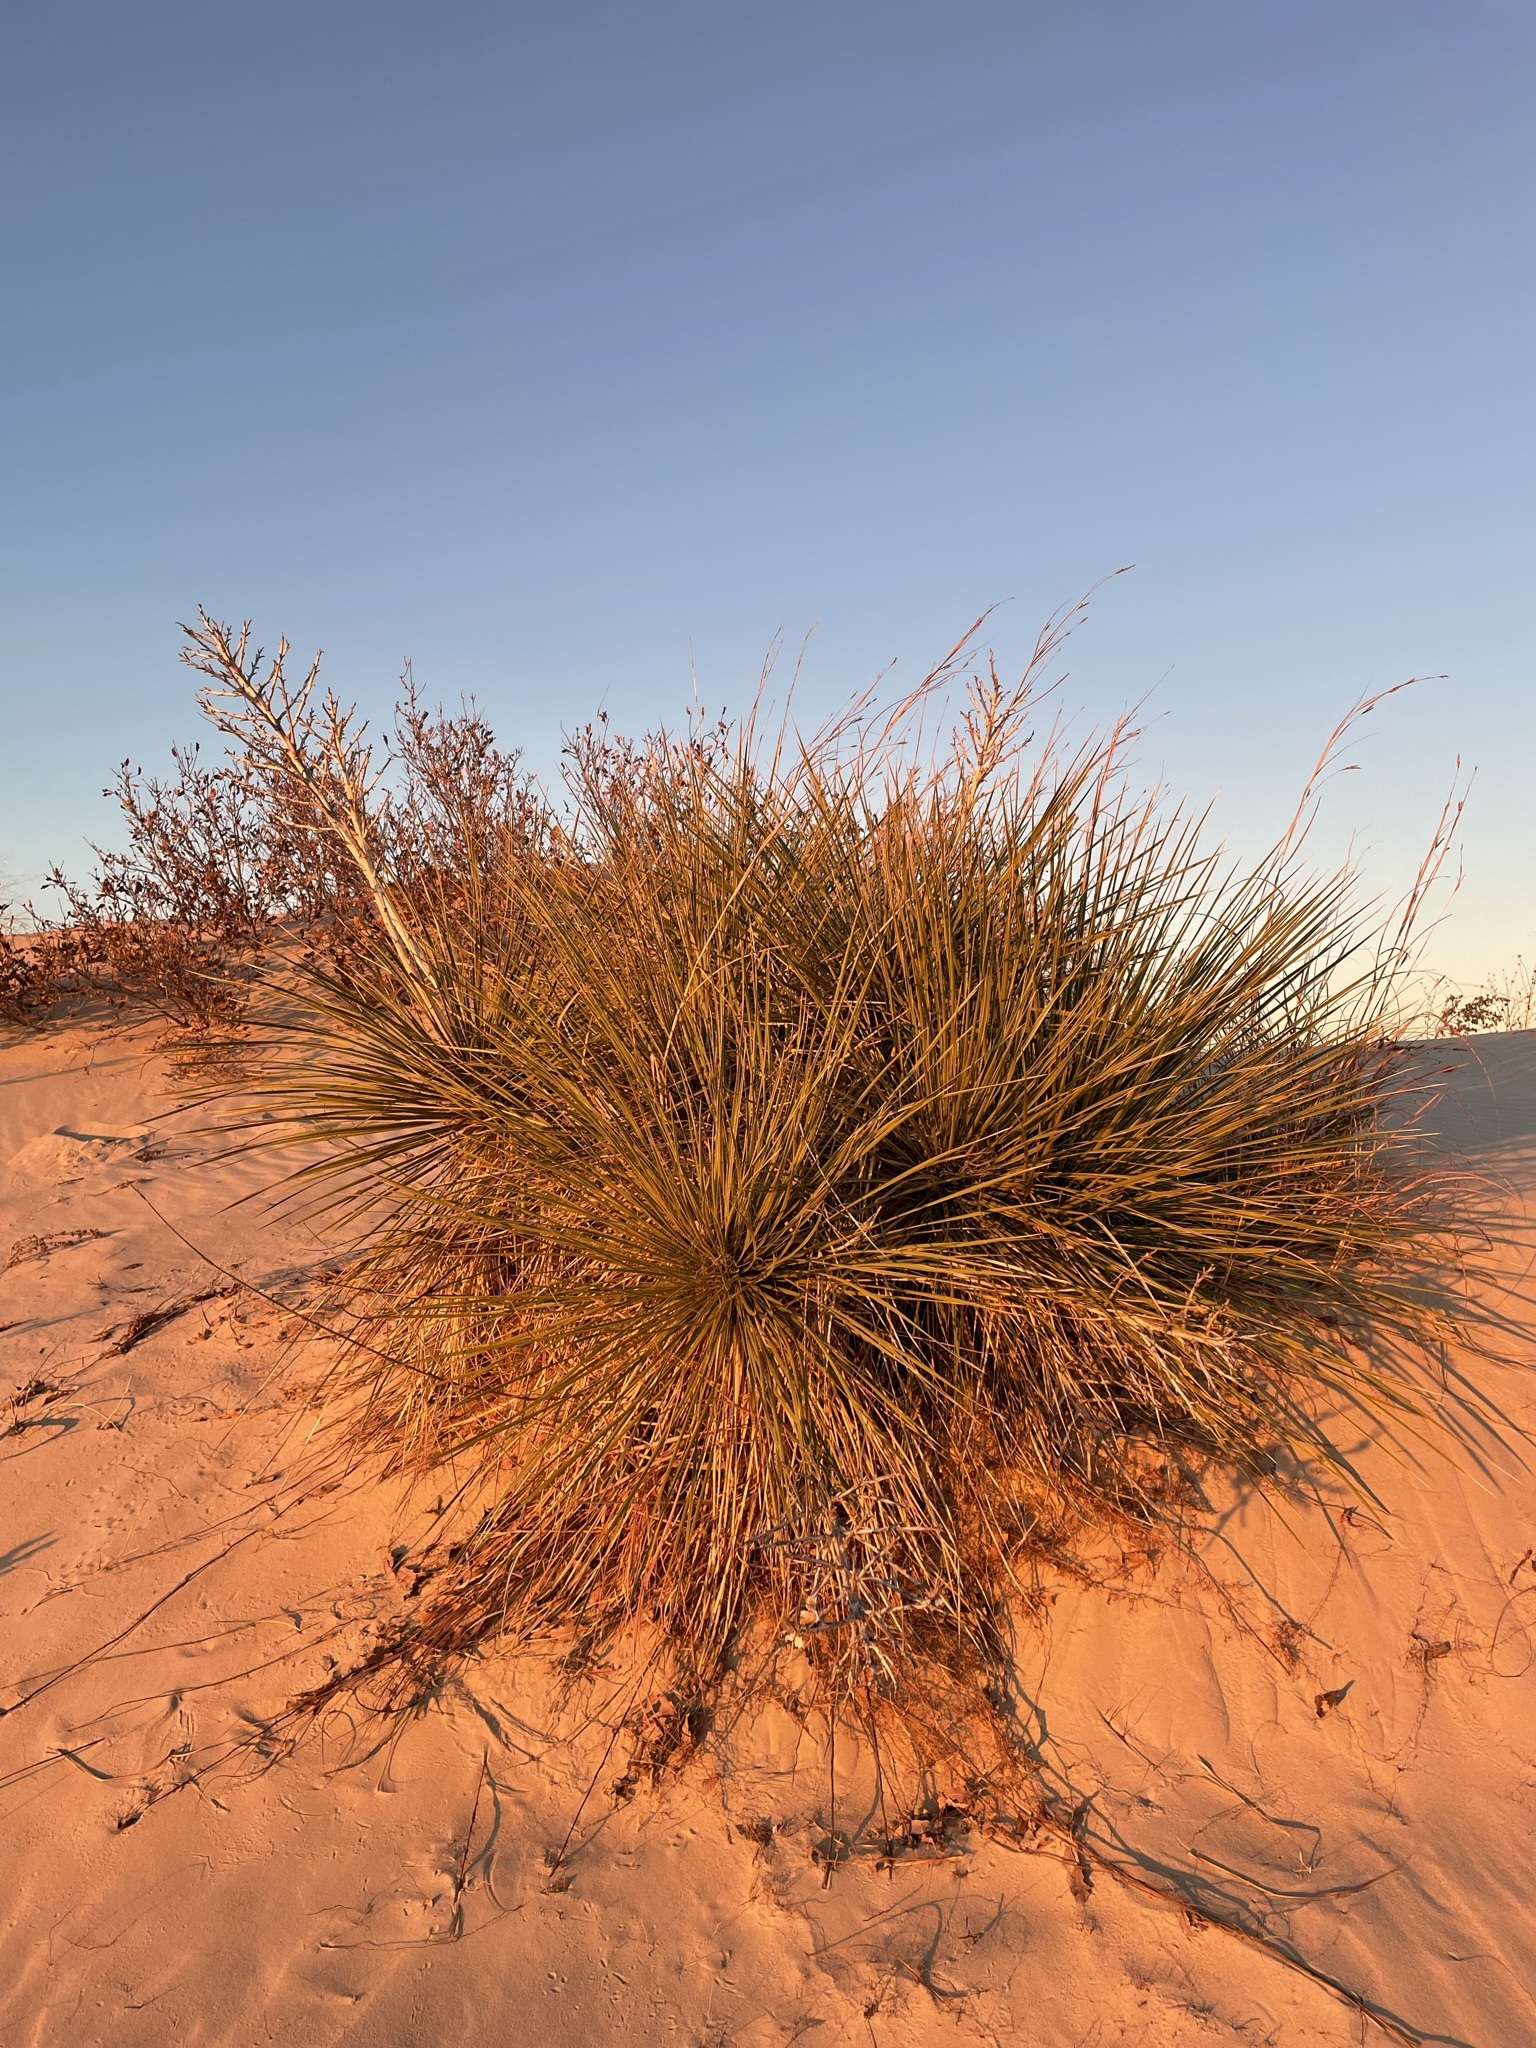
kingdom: Plantae
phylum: Tracheophyta
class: Liliopsida
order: Asparagales
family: Asparagaceae
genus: Yucca
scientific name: Yucca campestris
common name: Plains yucca
